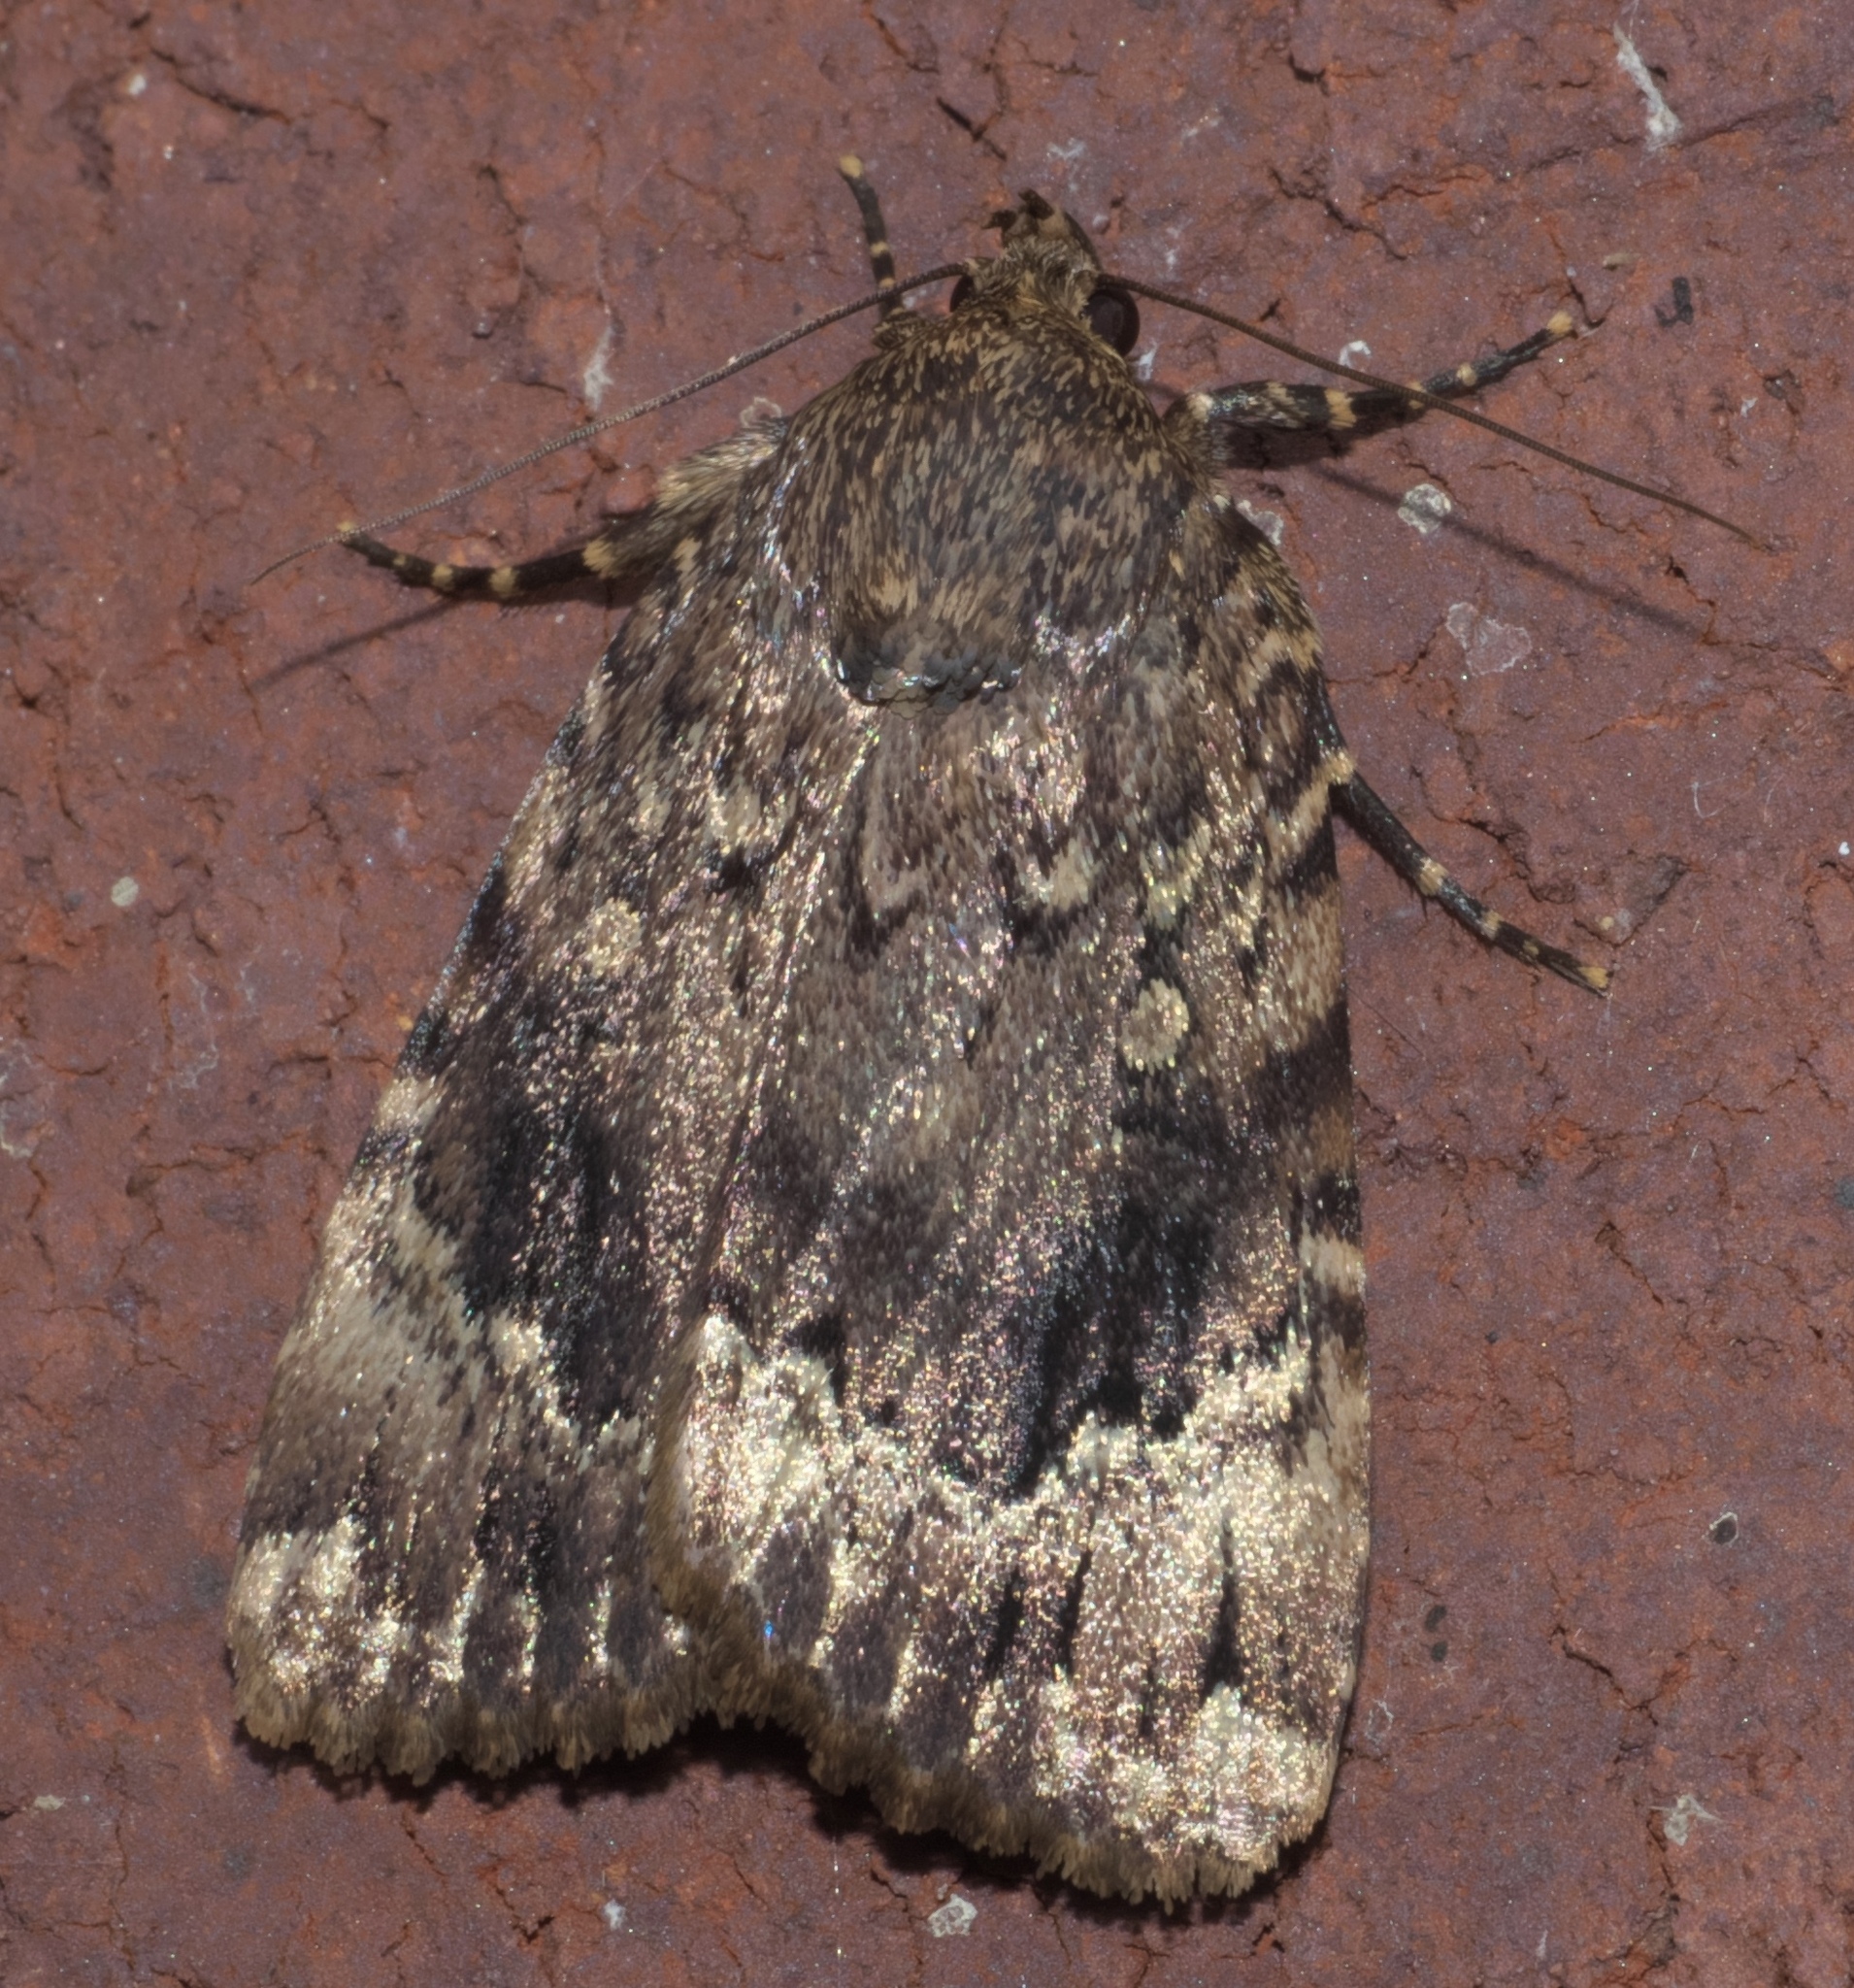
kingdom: Animalia
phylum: Arthropoda
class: Insecta
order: Lepidoptera
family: Noctuidae
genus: Amphipyra
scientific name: Amphipyra pyramidoides
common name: American copper underwing
